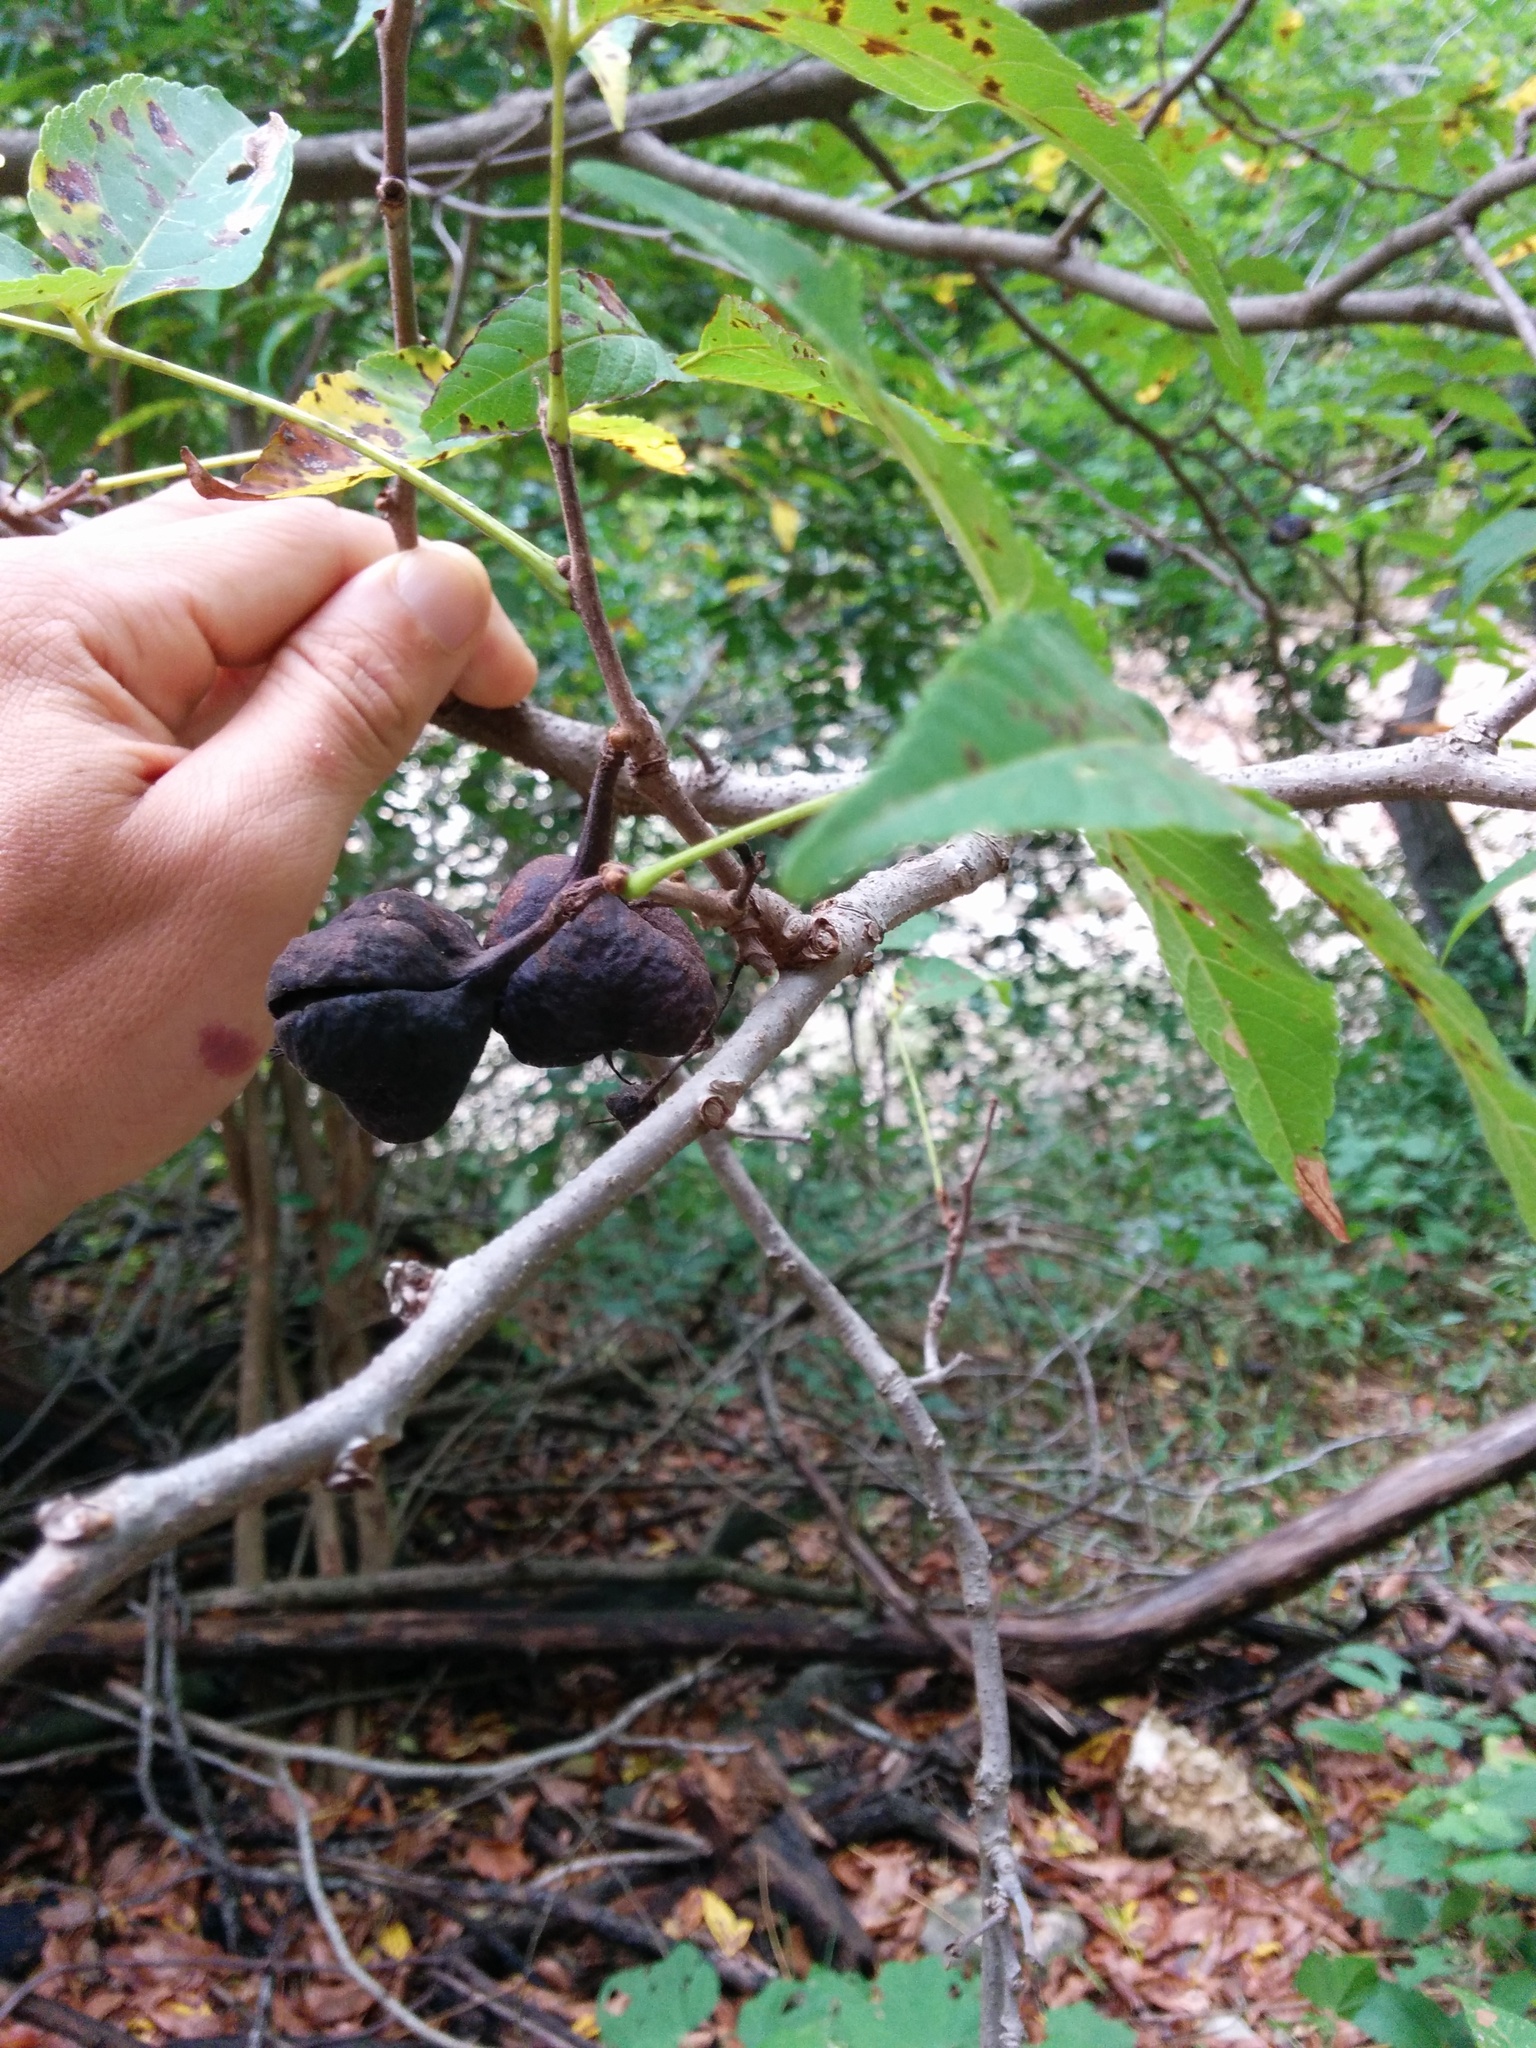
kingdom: Plantae
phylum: Tracheophyta
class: Magnoliopsida
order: Sapindales
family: Sapindaceae
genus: Ungnadia
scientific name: Ungnadia speciosa
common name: Texas-buckeye
